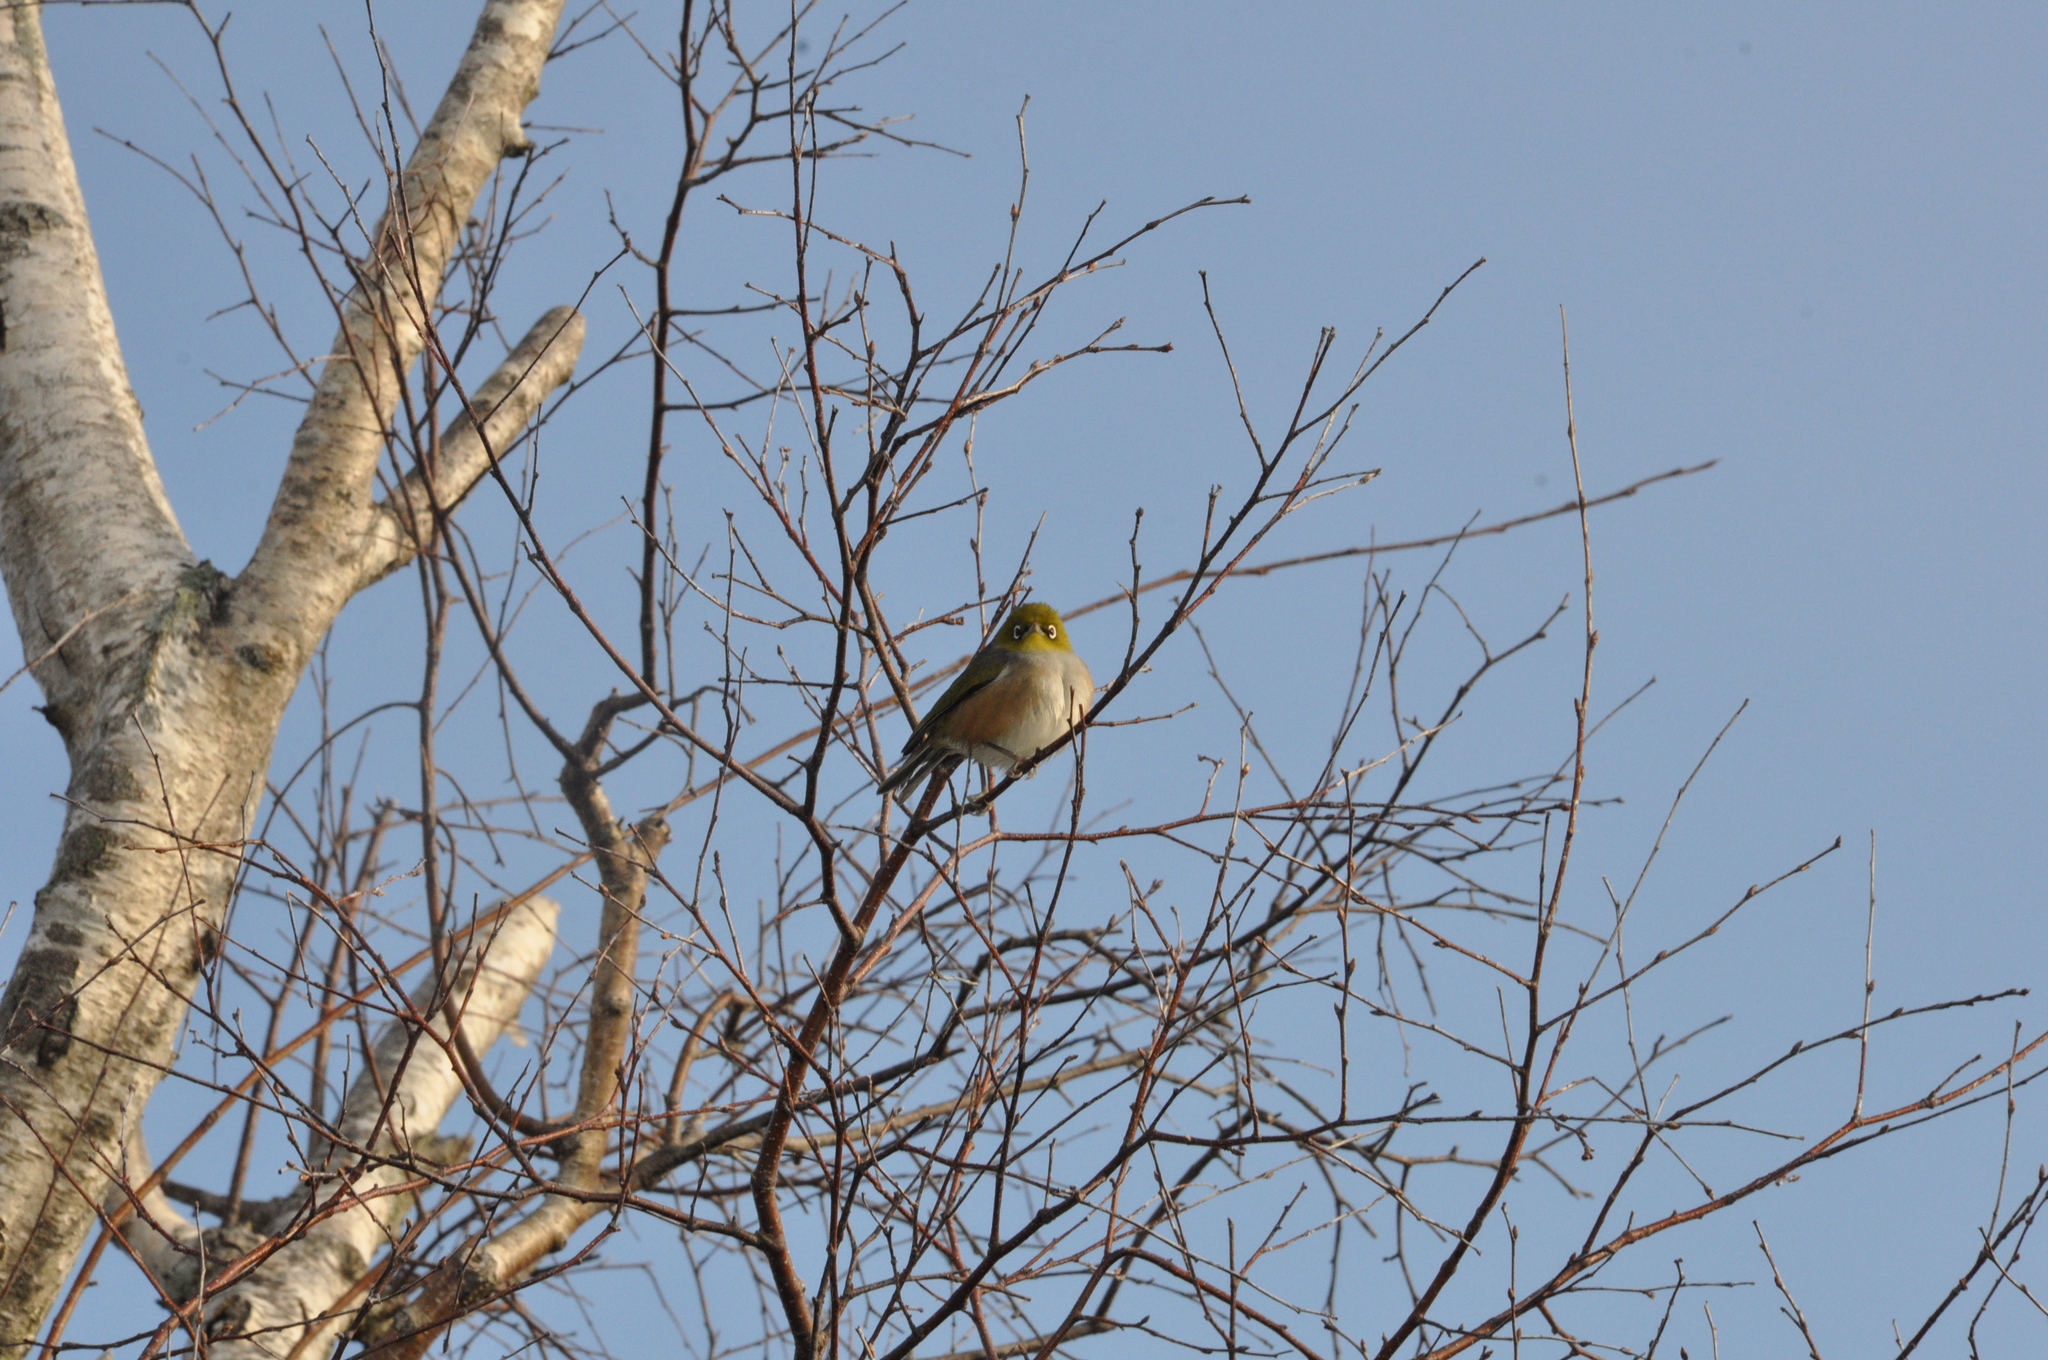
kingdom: Animalia
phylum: Chordata
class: Aves
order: Passeriformes
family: Zosteropidae
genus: Zosterops
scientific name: Zosterops lateralis
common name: Silvereye
